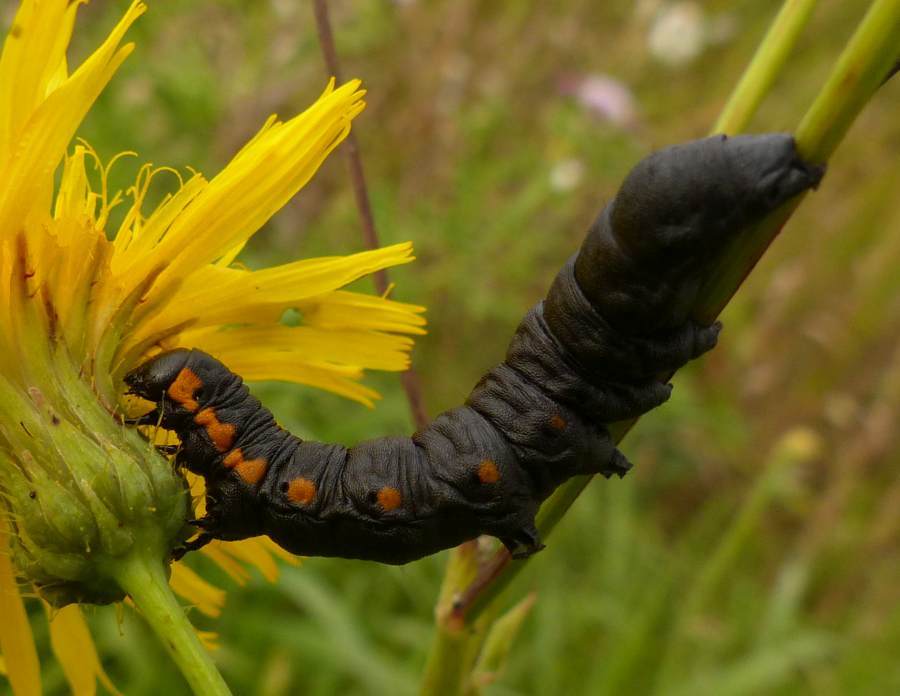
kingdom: Animalia
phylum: Arthropoda
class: Insecta
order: Lepidoptera
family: Noctuidae
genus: Cucullia
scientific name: Cucullia intermedia
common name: Goldenrod cutworm
